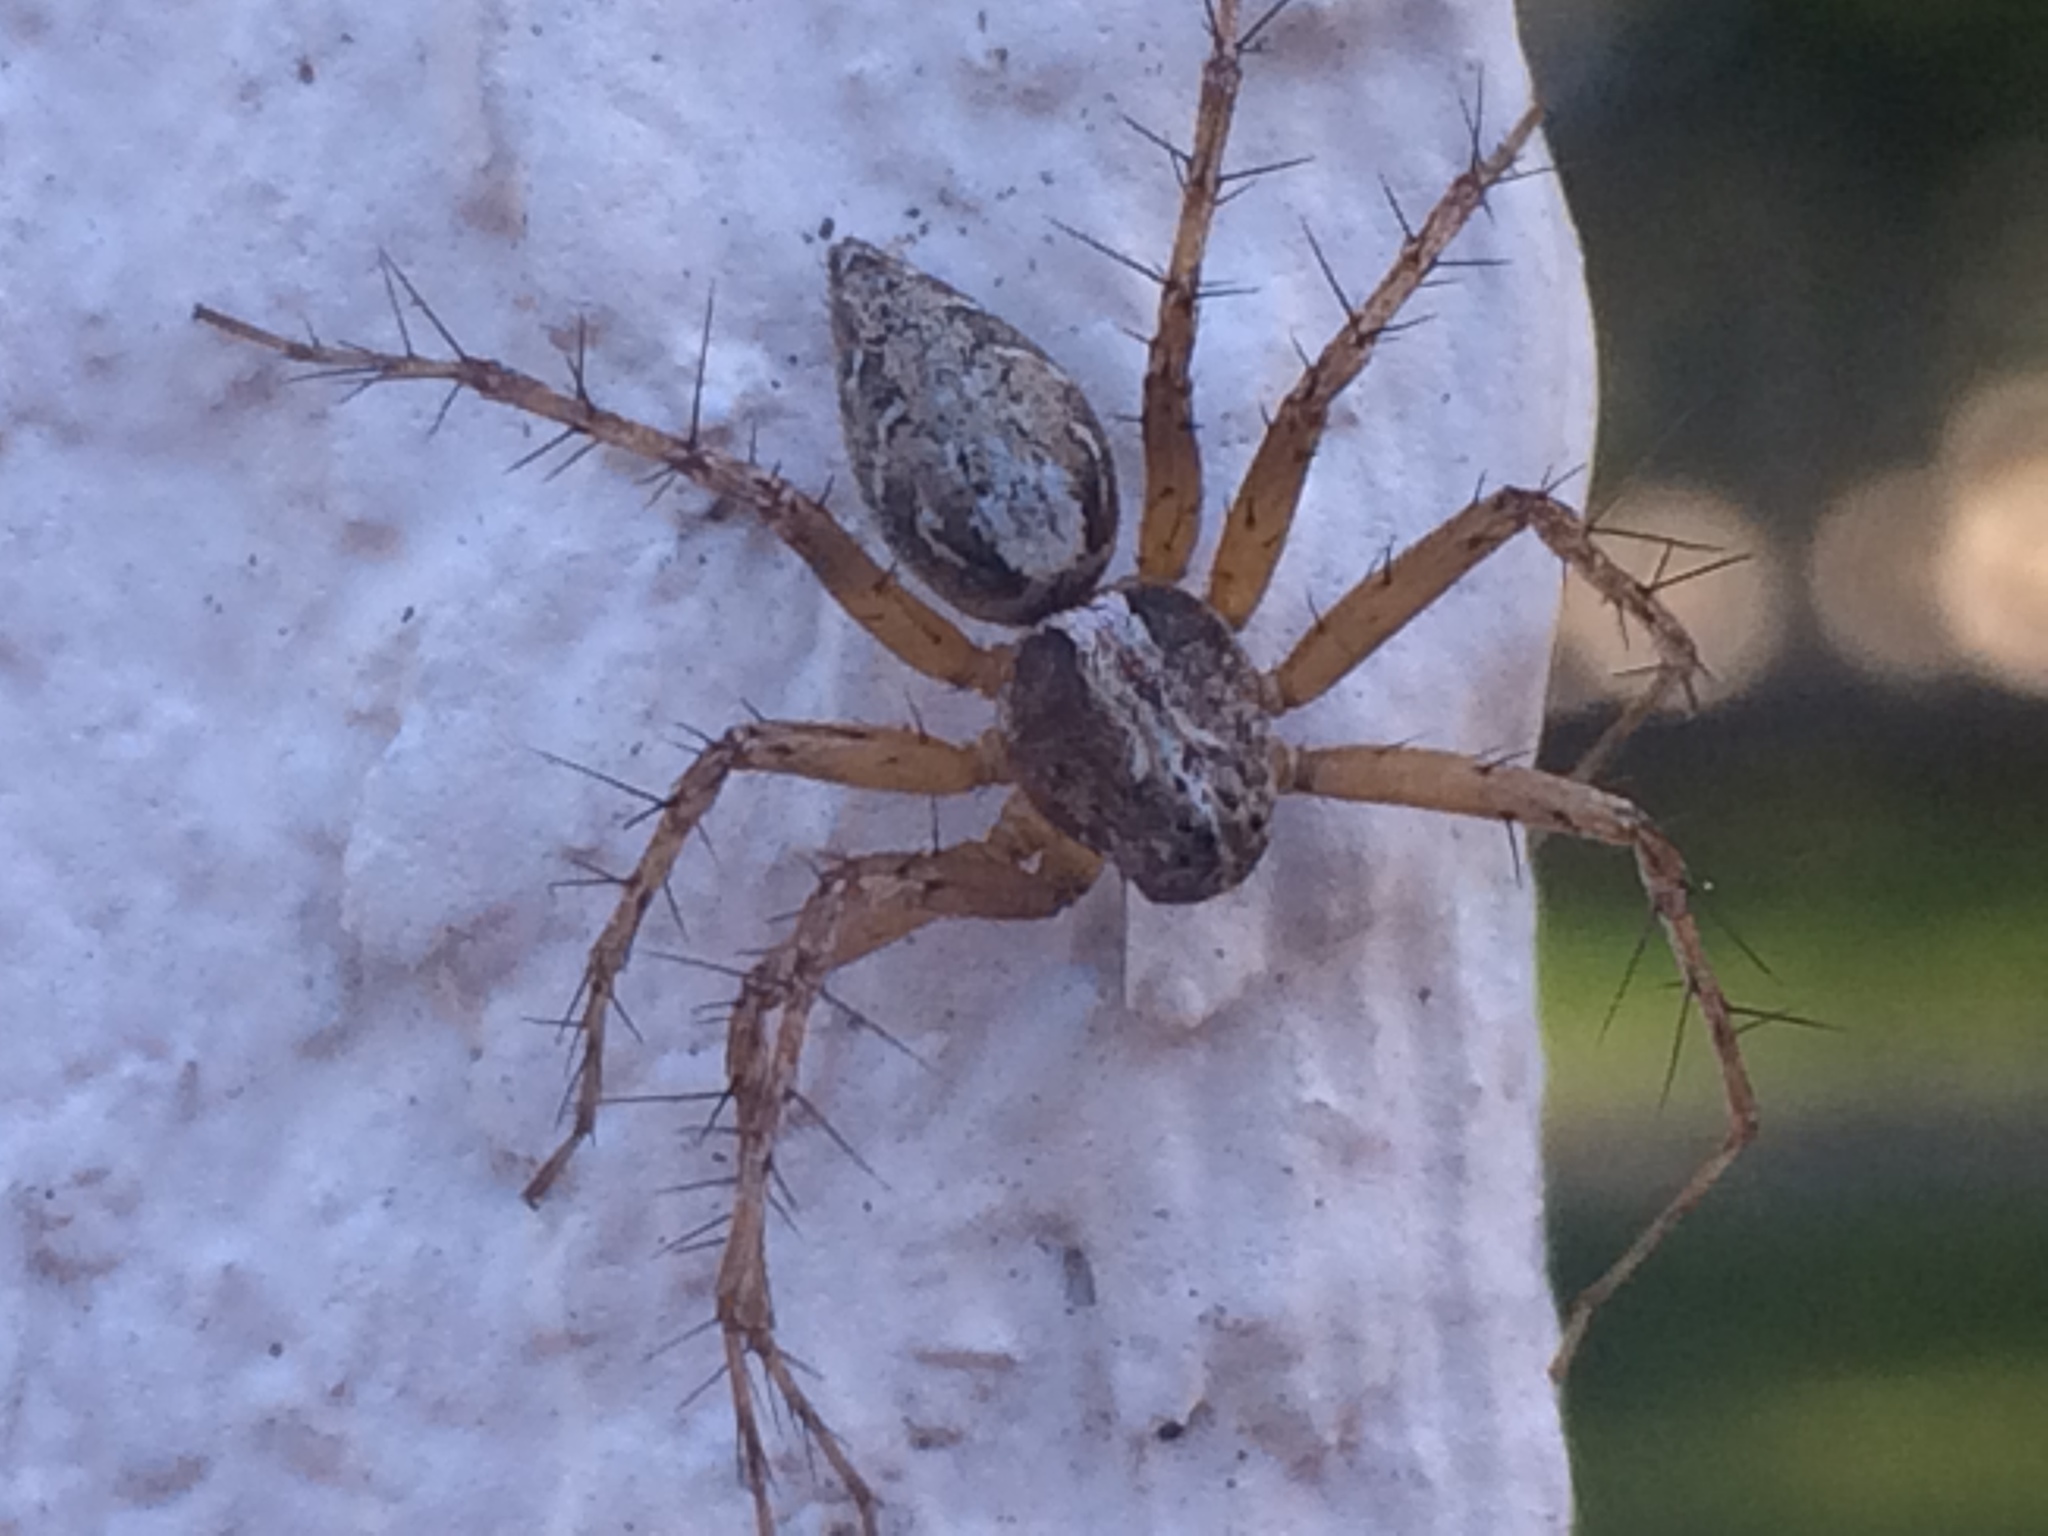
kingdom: Animalia
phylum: Arthropoda
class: Arachnida
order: Araneae
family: Oxyopidae
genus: Oxyopes
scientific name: Oxyopes scalaris
